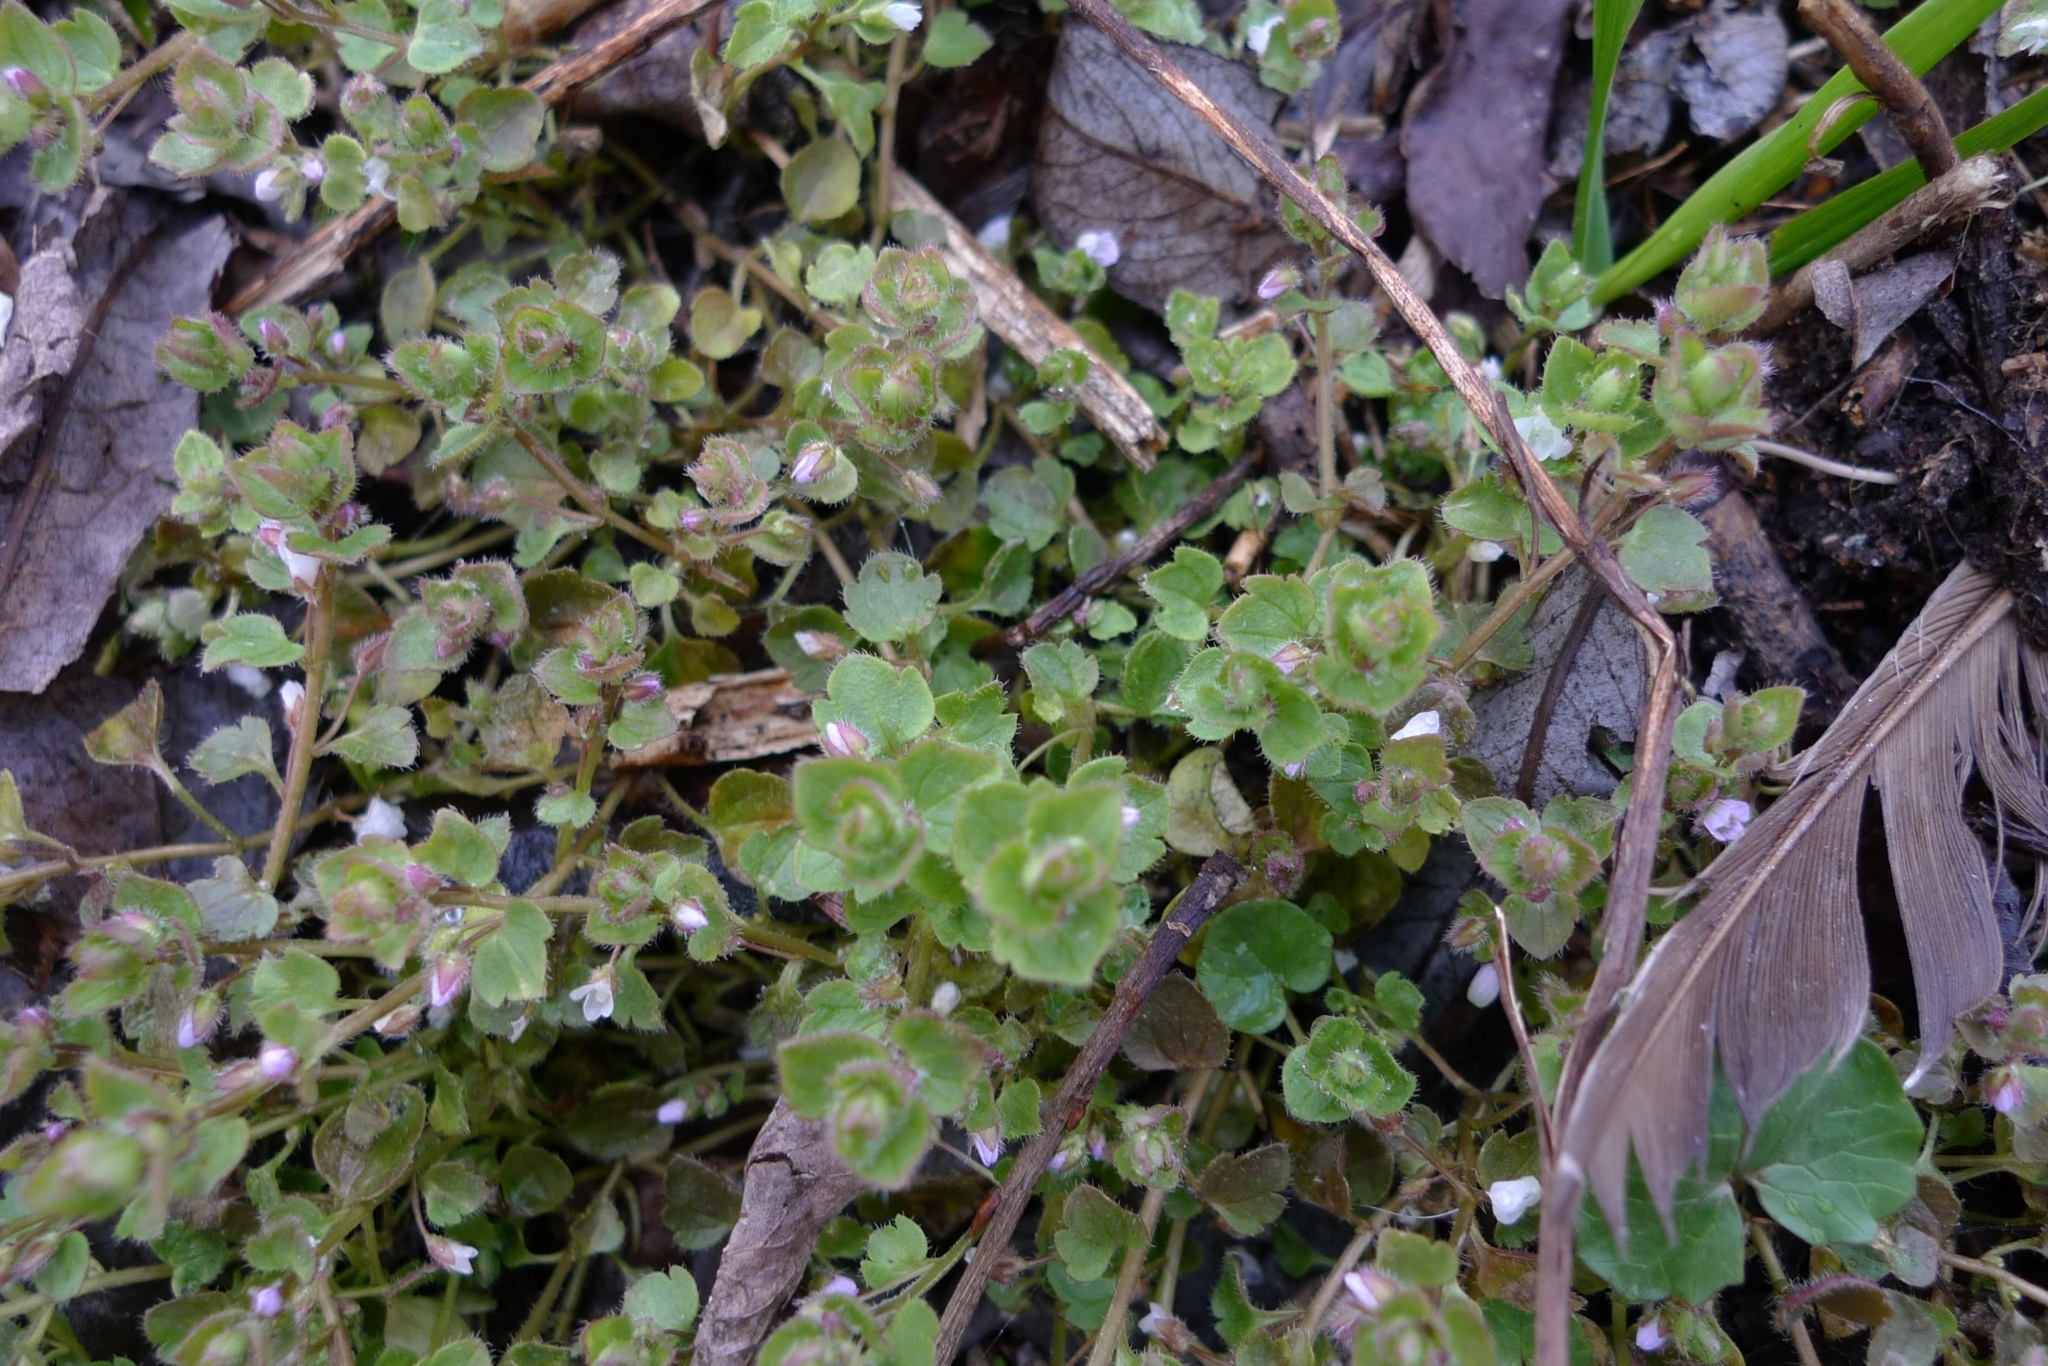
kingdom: Plantae
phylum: Tracheophyta
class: Magnoliopsida
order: Lamiales
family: Plantaginaceae
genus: Veronica
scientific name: Veronica sublobata
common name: False ivy-leaved speedwell
